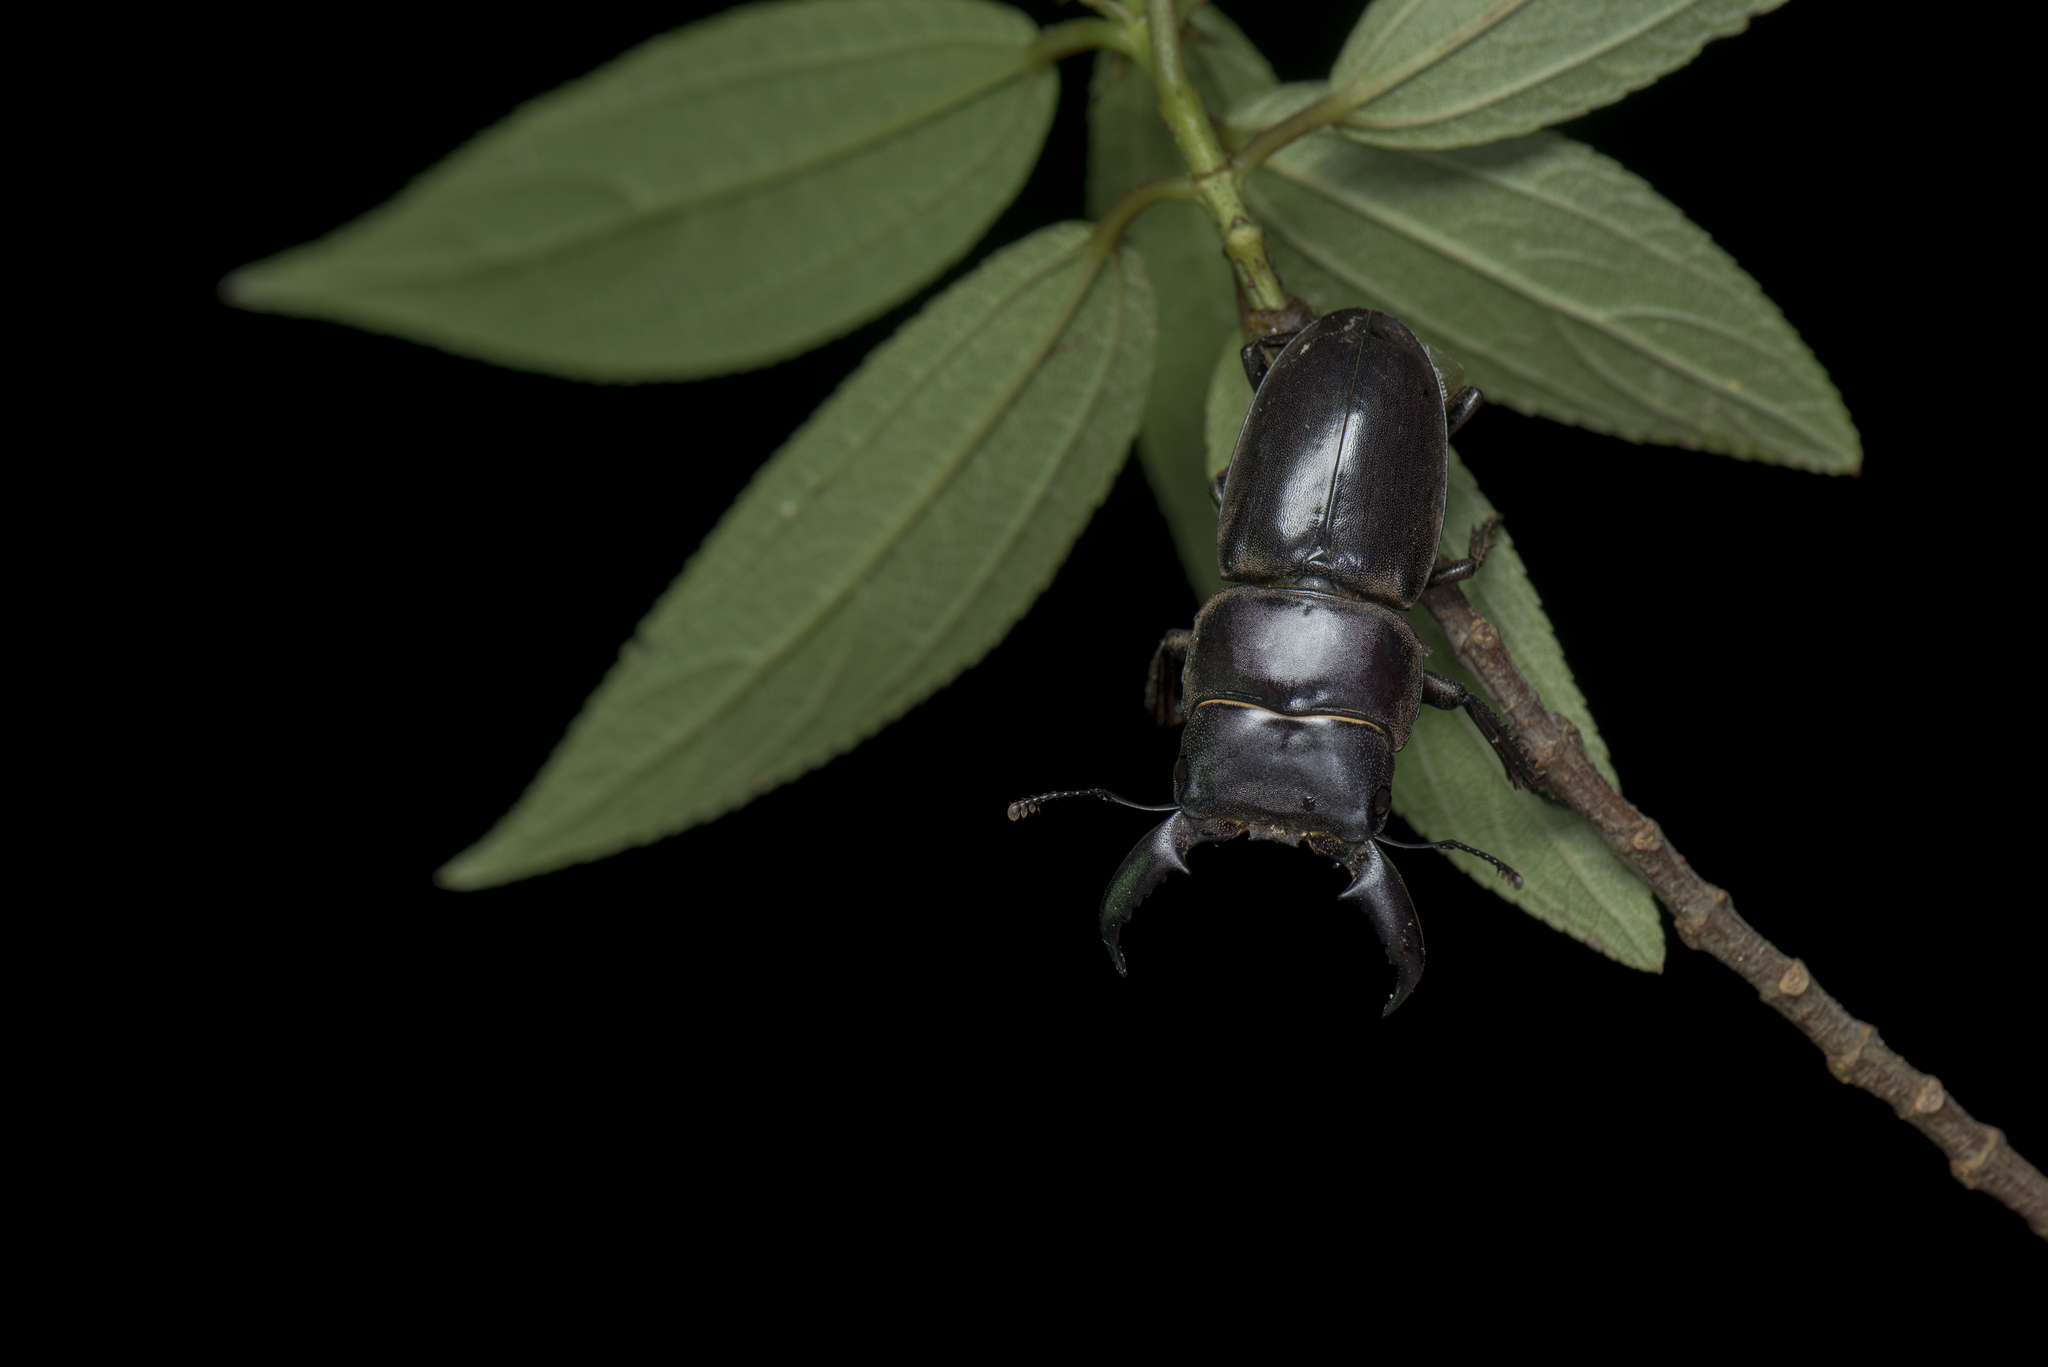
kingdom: Animalia
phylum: Arthropoda
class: Insecta
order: Coleoptera
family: Lucanidae
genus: Serrognathus
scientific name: Serrognathus titanus
